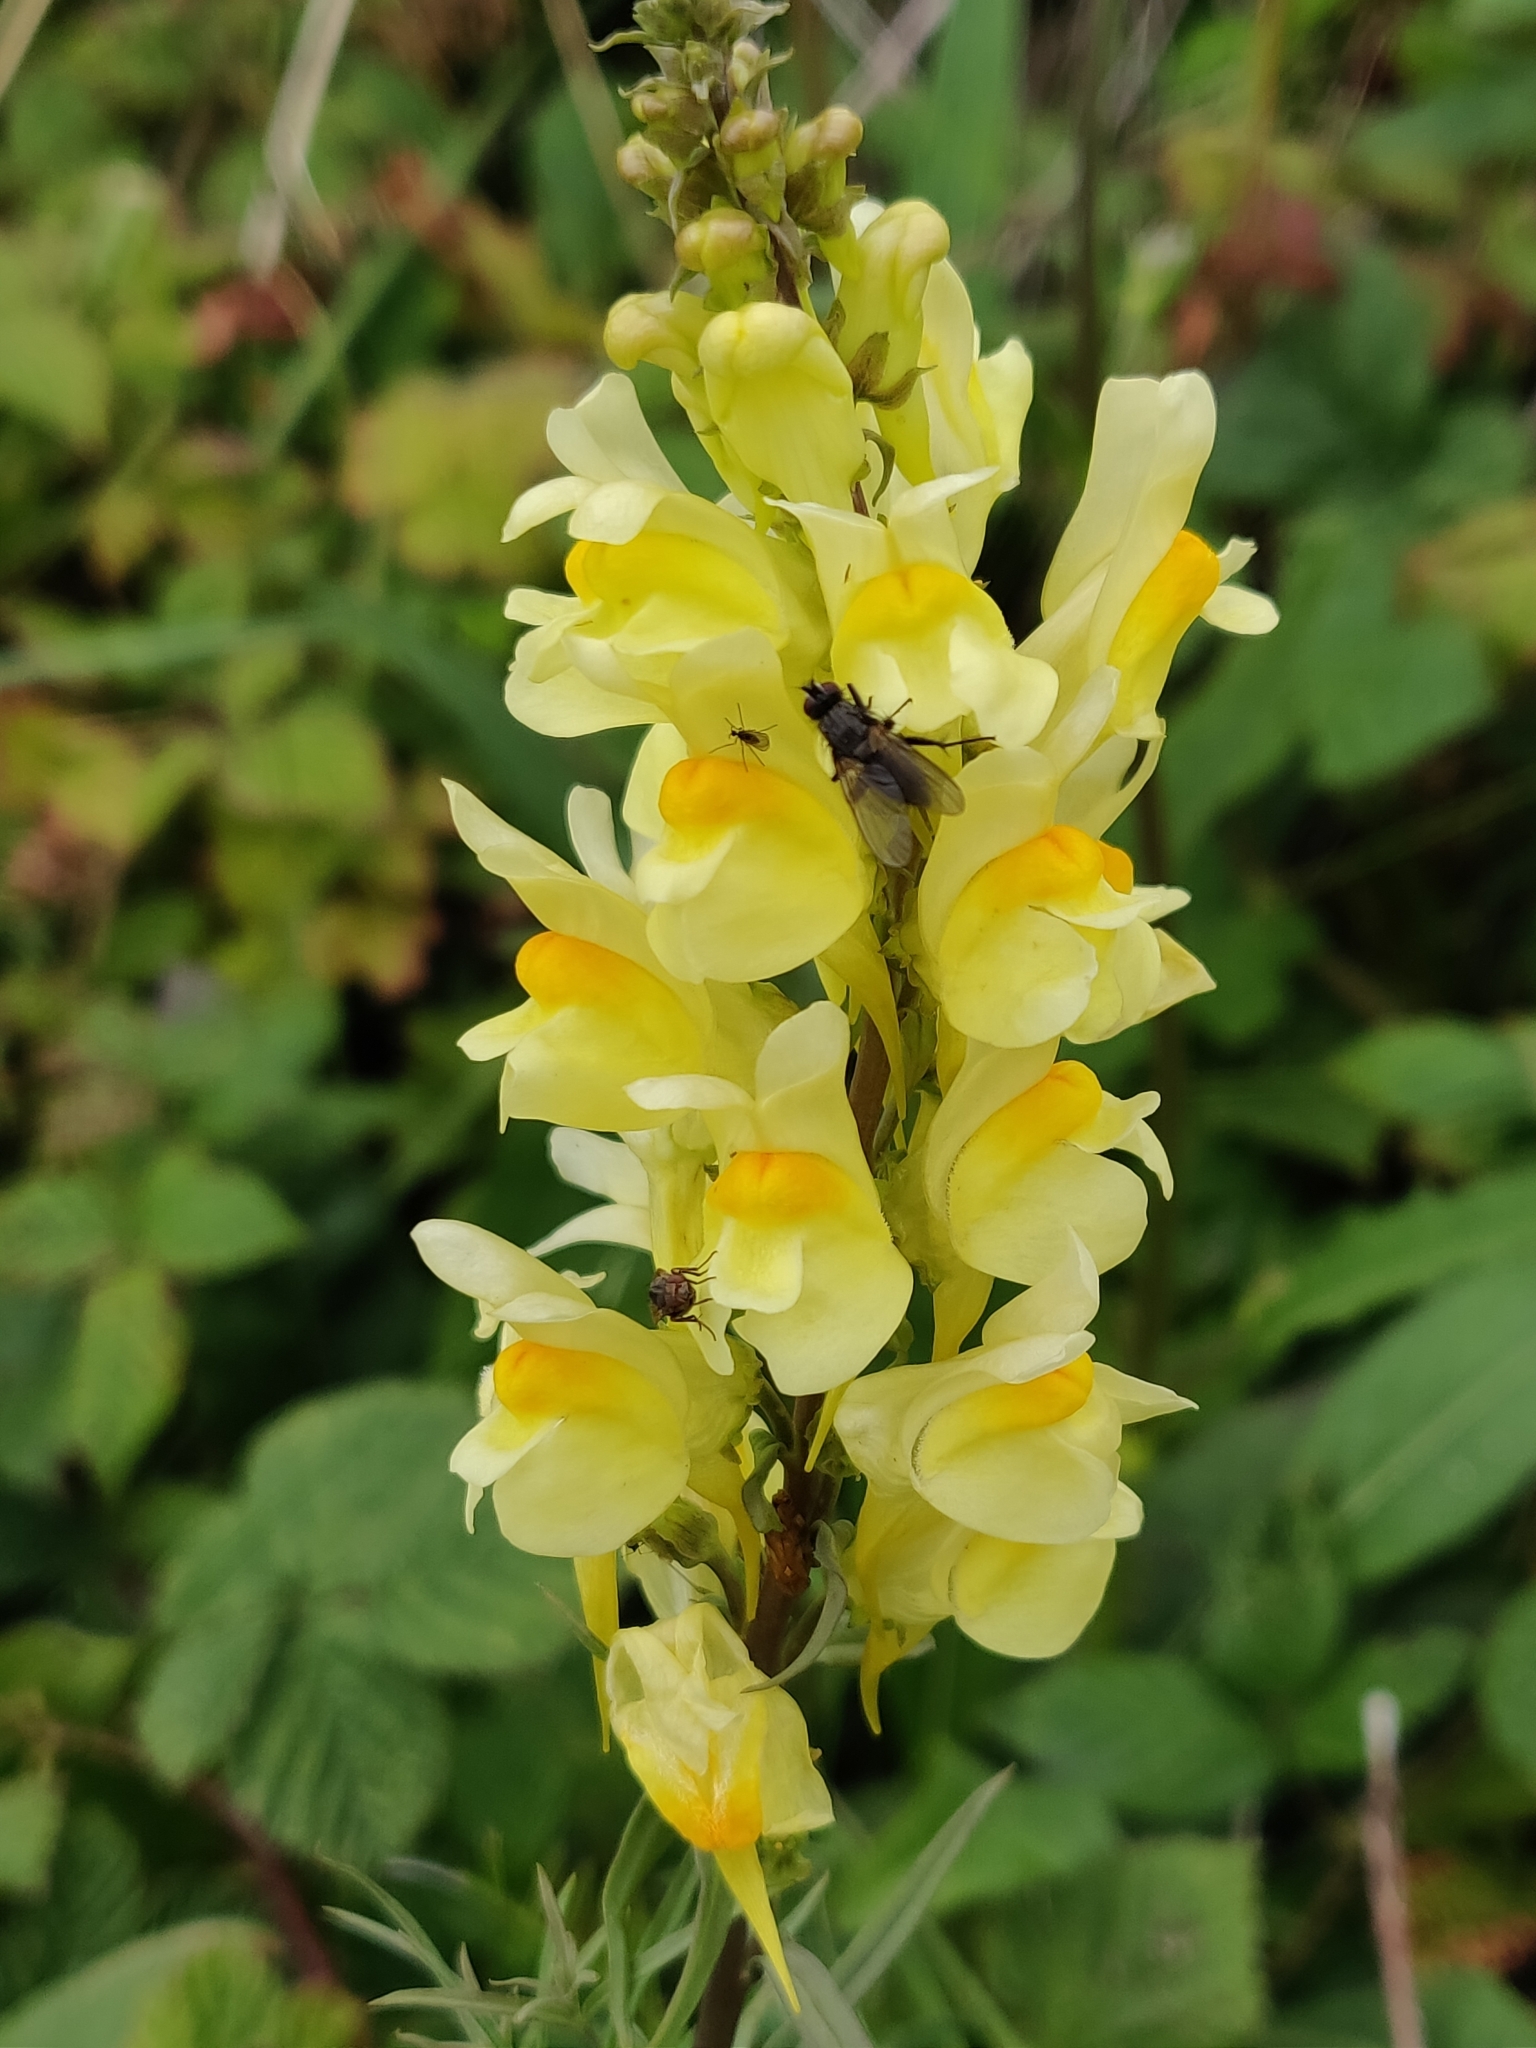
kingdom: Plantae
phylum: Tracheophyta
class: Magnoliopsida
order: Lamiales
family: Plantaginaceae
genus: Linaria
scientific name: Linaria vulgaris
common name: Butter and eggs
